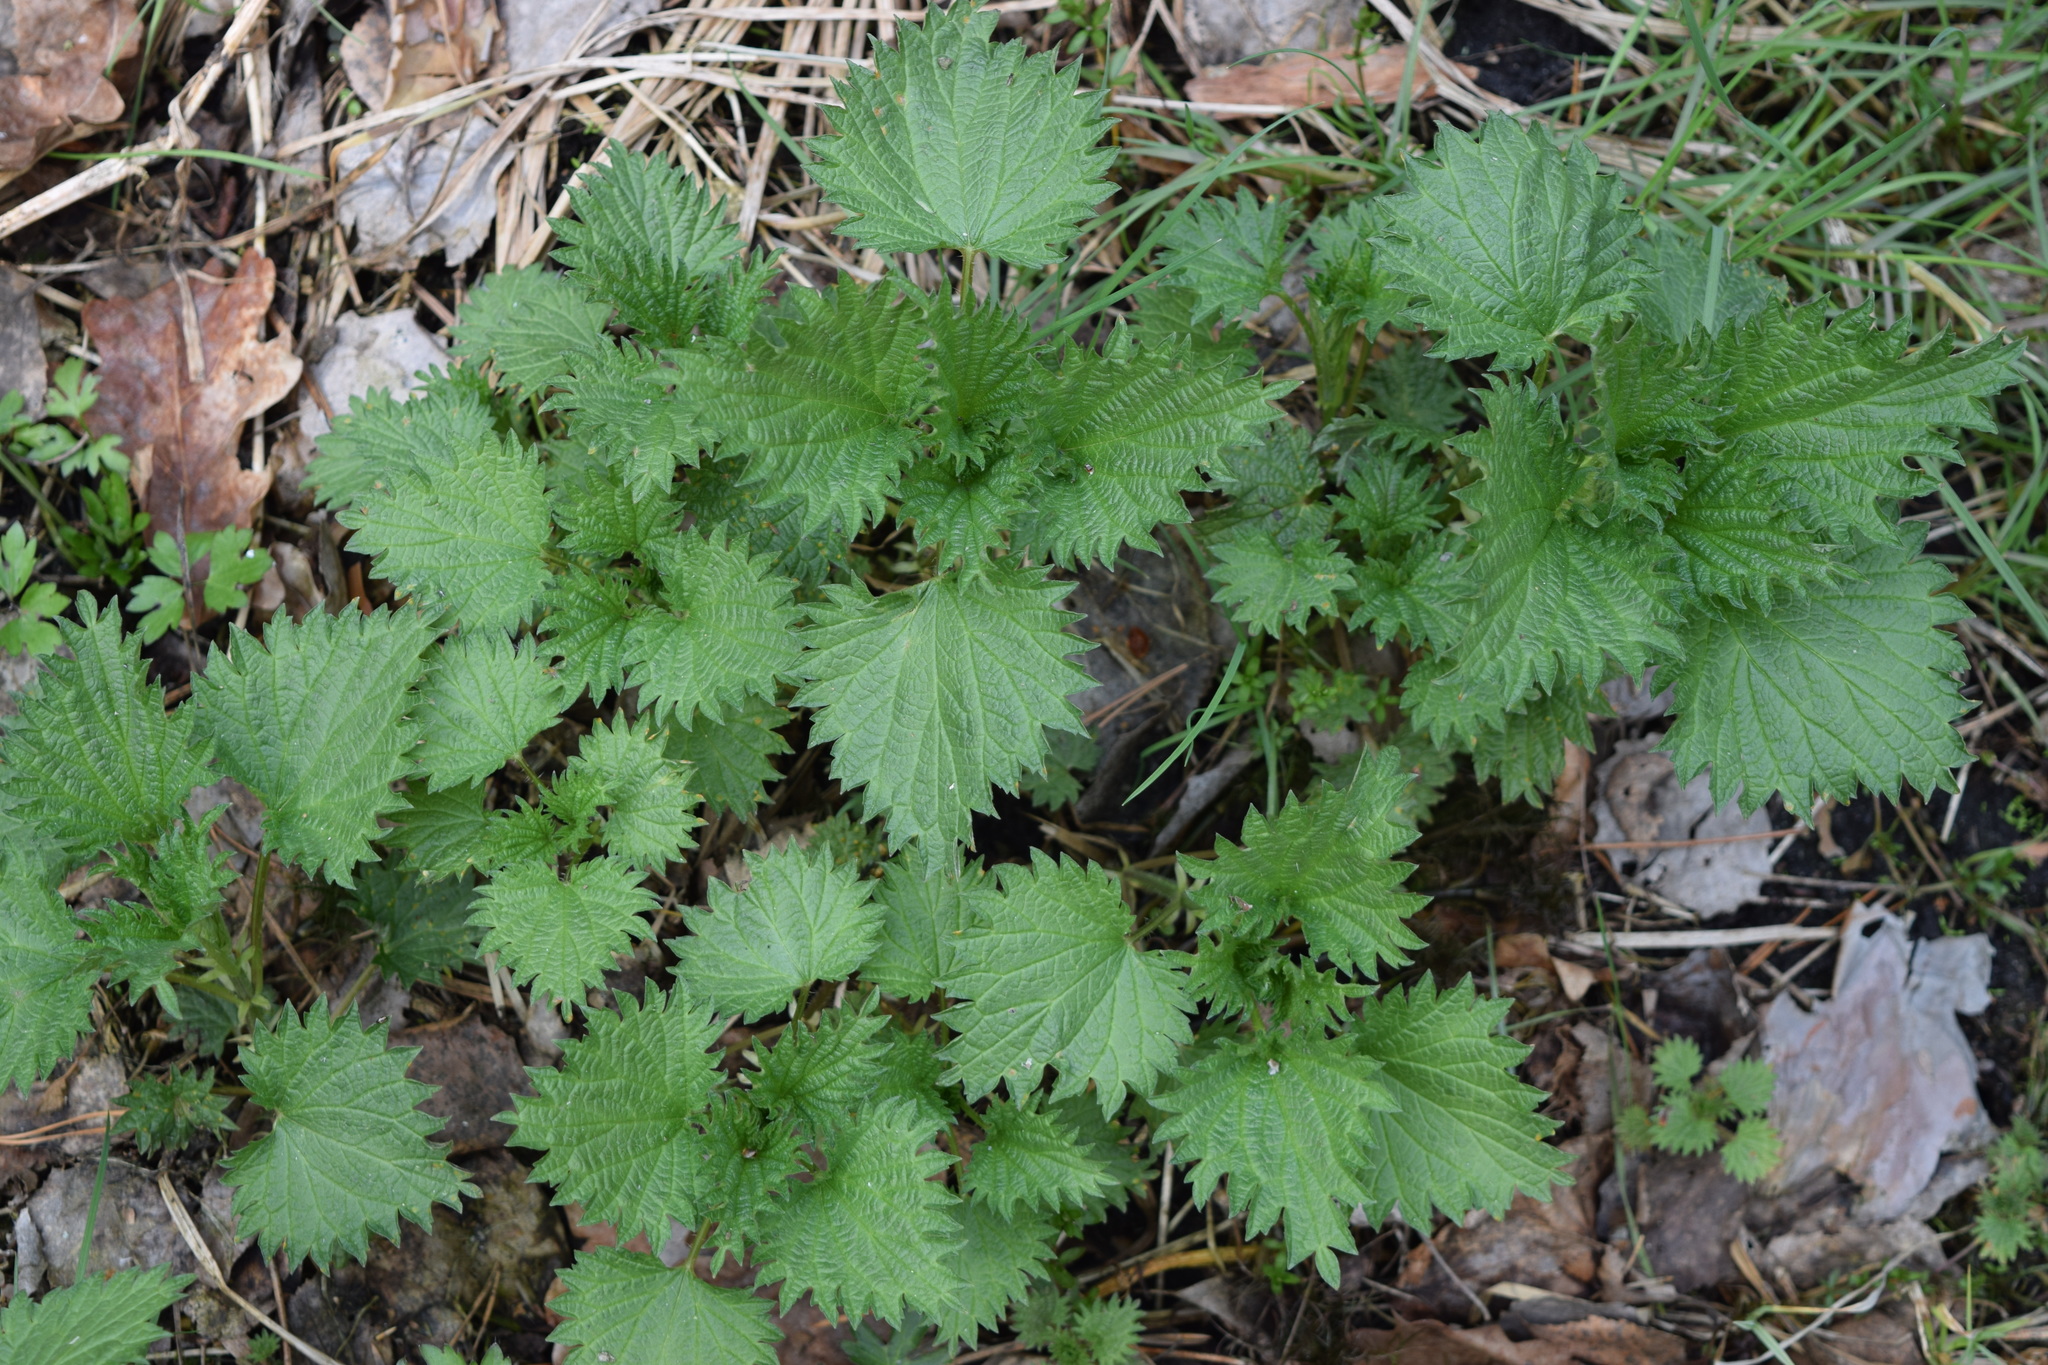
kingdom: Plantae
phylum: Tracheophyta
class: Magnoliopsida
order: Rosales
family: Urticaceae
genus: Urtica
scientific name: Urtica dioica
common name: Common nettle
